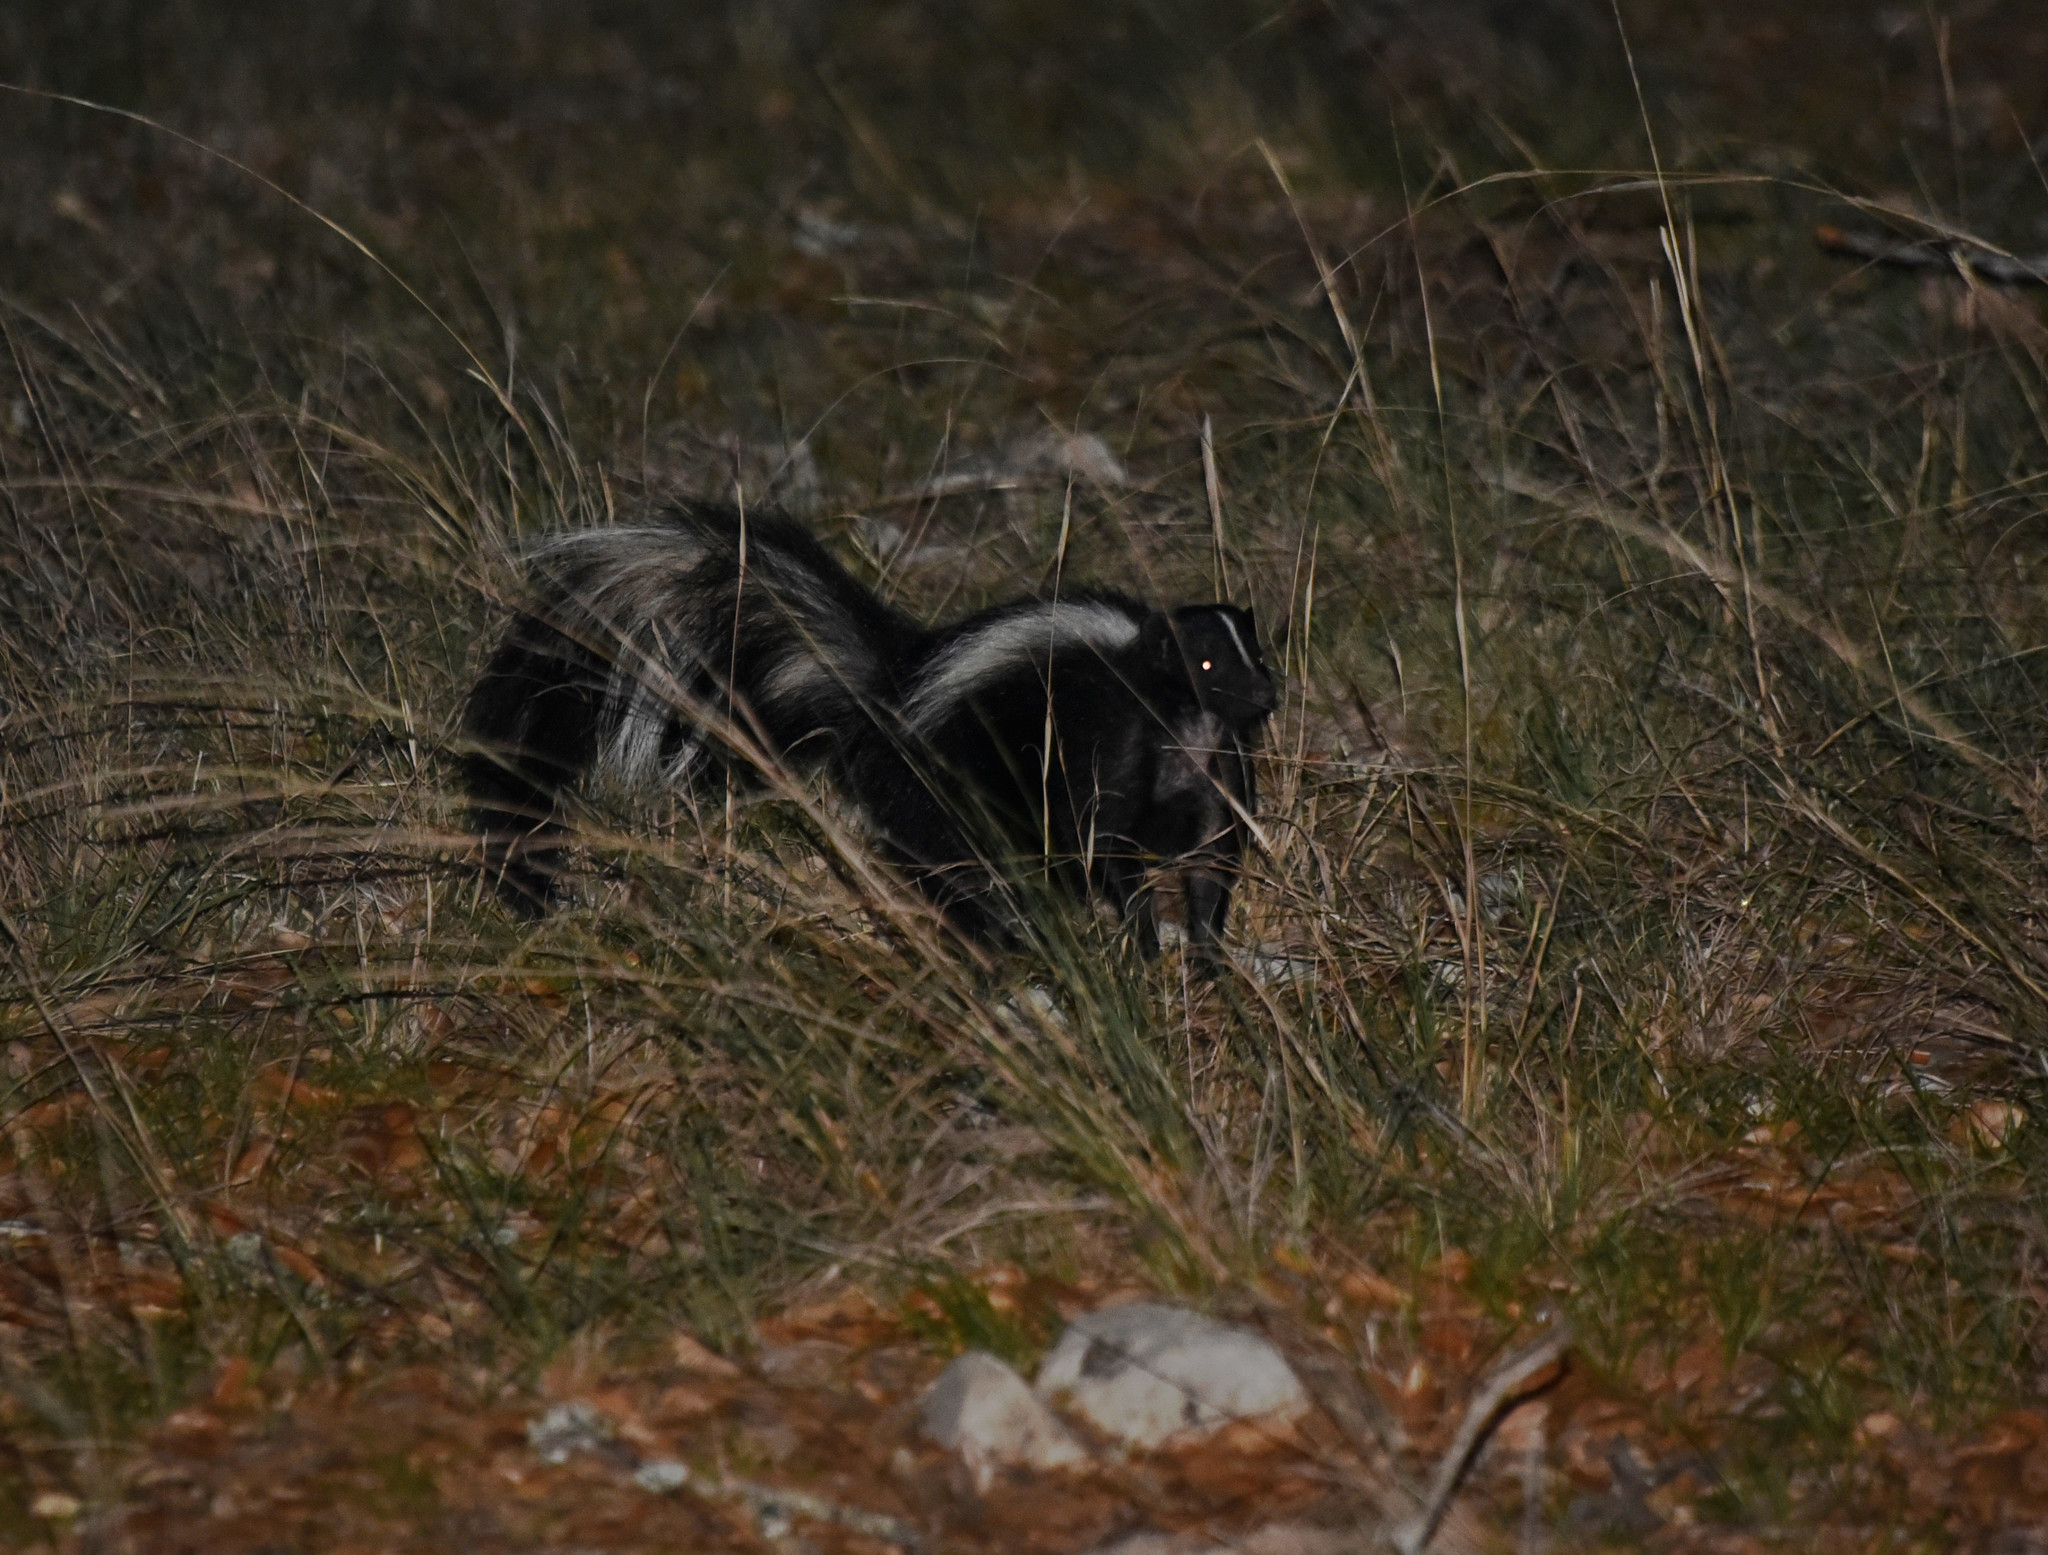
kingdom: Animalia
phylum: Chordata
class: Mammalia
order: Carnivora
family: Mephitidae
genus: Mephitis
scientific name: Mephitis mephitis
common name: Striped skunk
